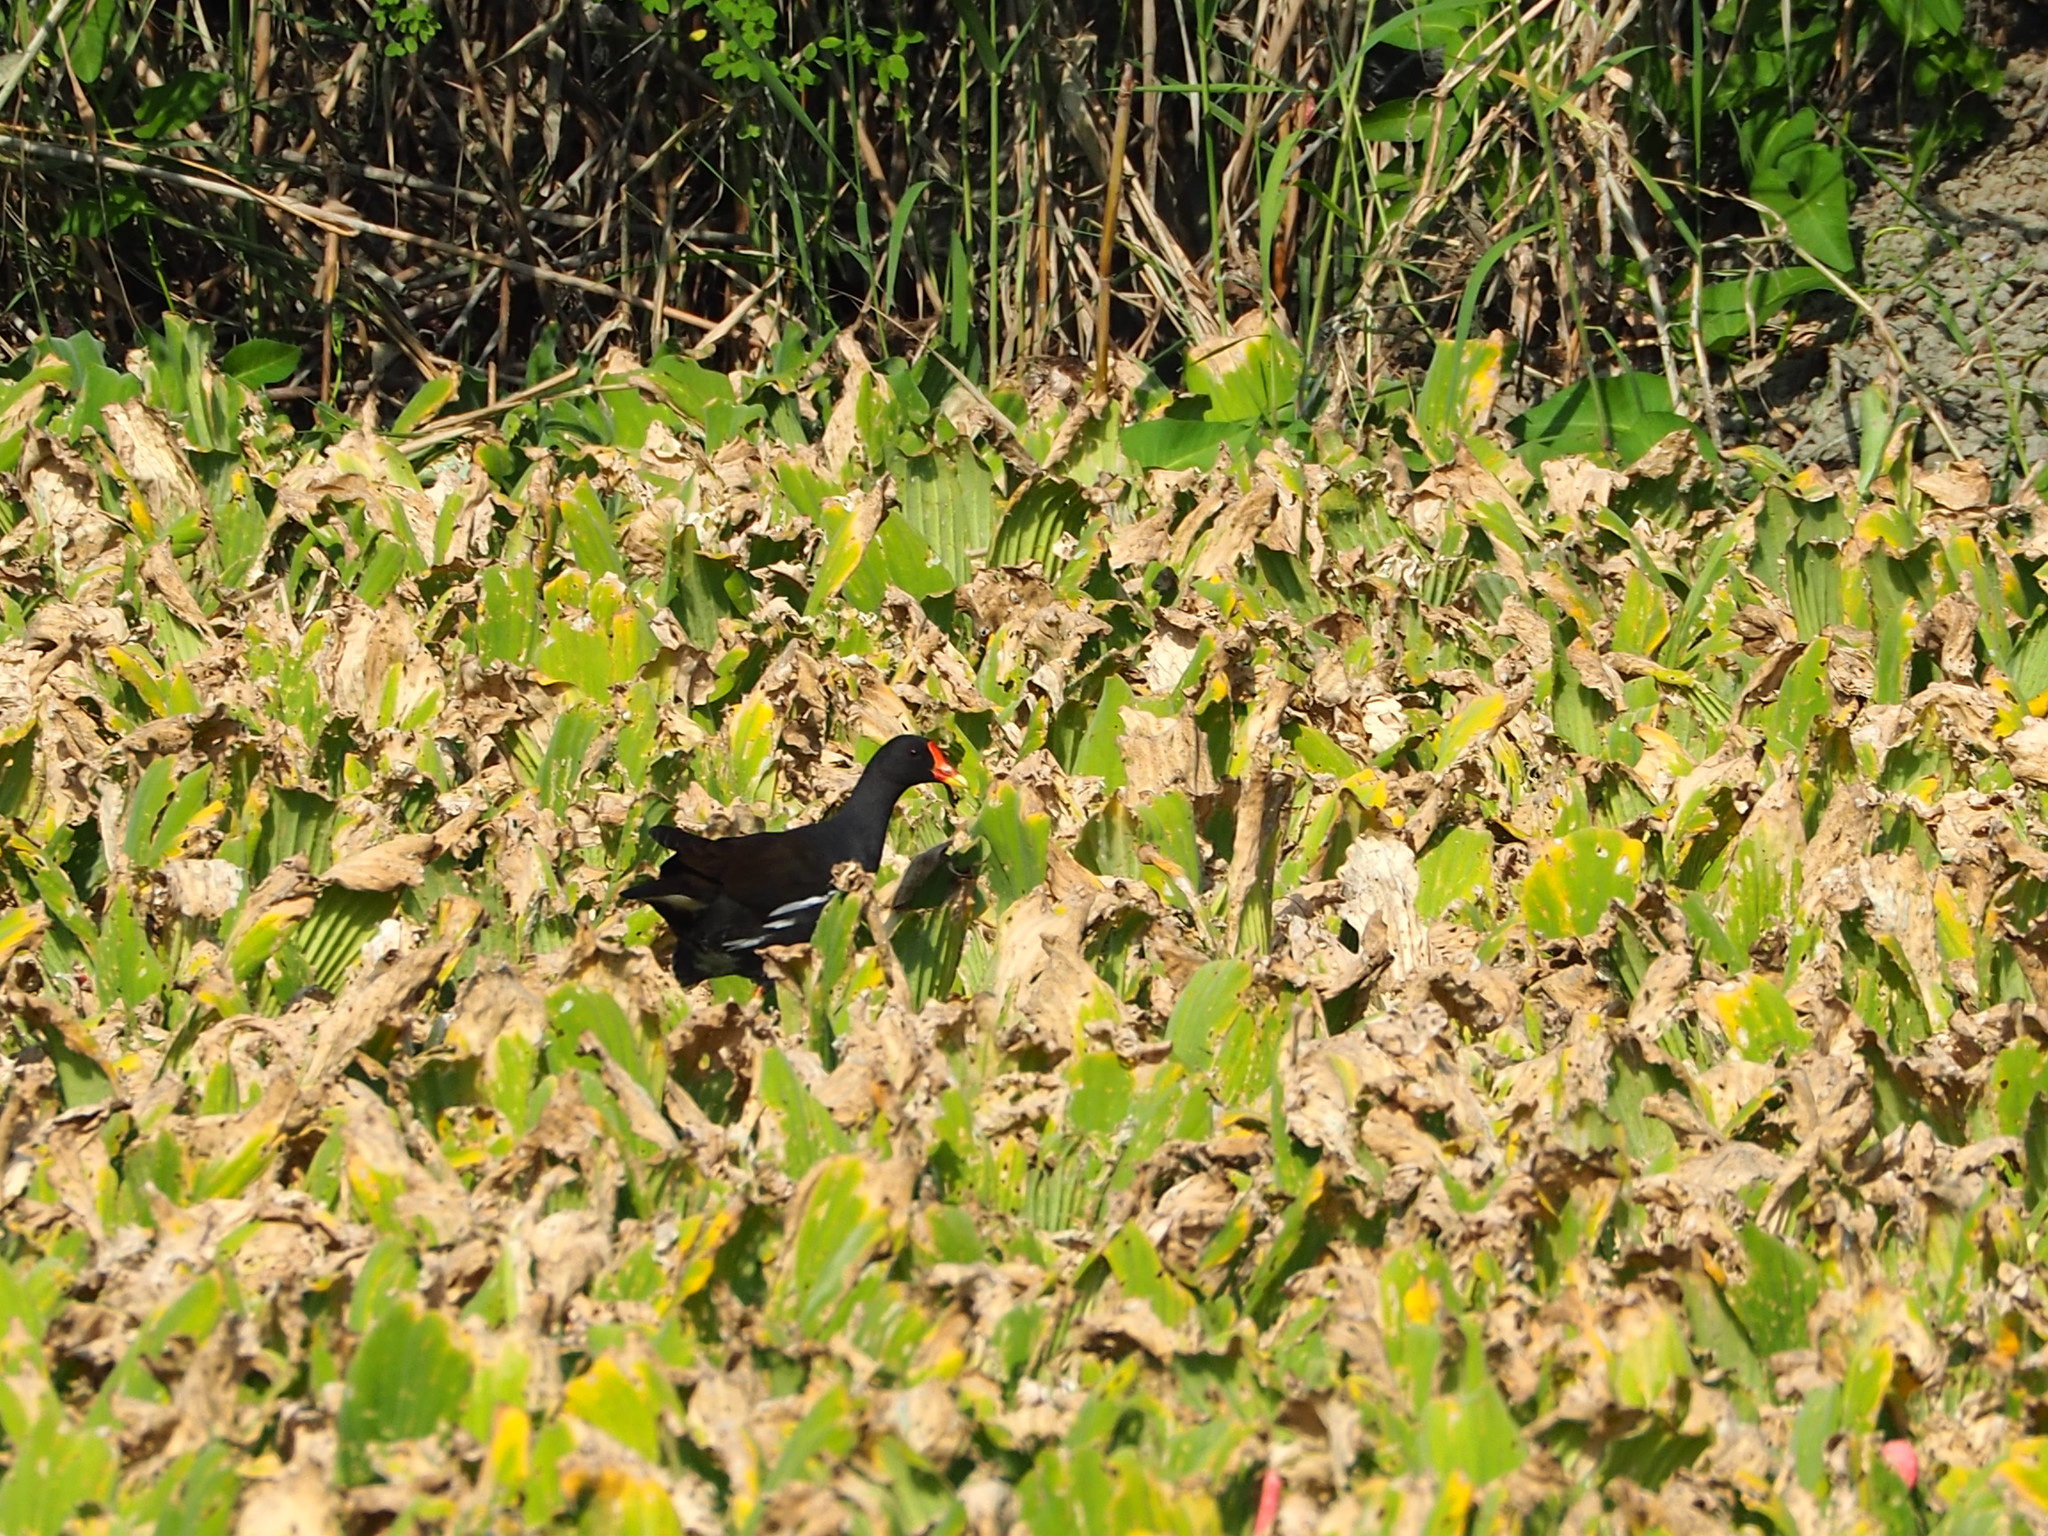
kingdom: Animalia
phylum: Chordata
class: Aves
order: Gruiformes
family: Rallidae
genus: Gallinula
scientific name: Gallinula chloropus
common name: Common moorhen
